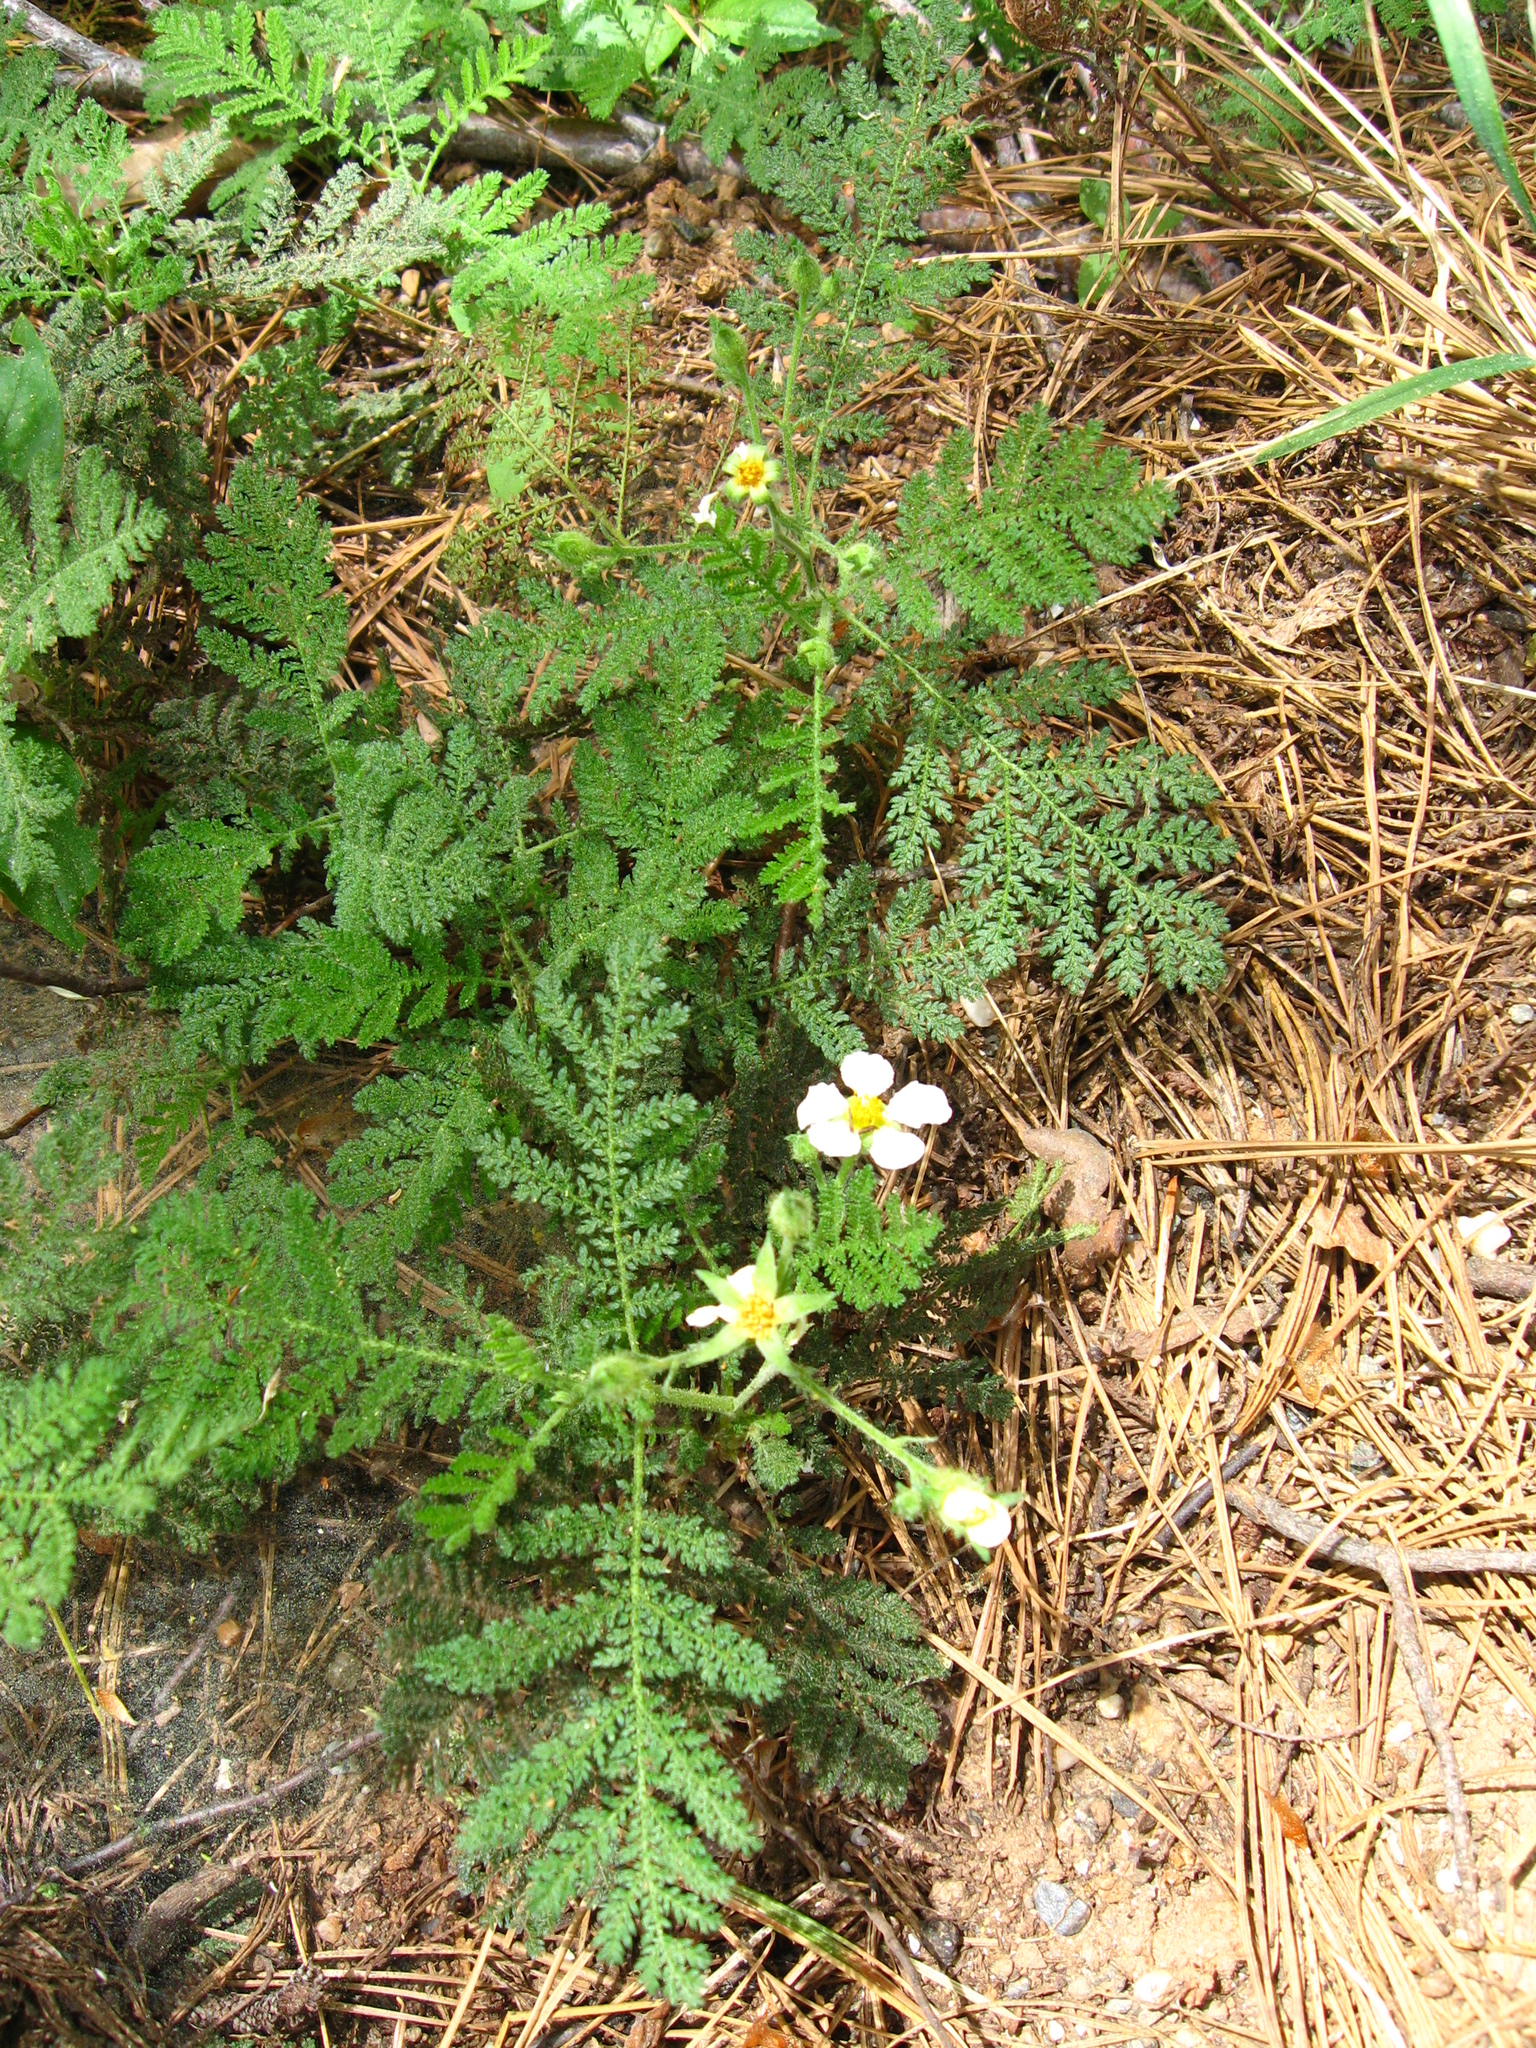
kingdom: Plantae
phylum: Tracheophyta
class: Magnoliopsida
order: Rosales
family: Rosaceae
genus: Chamaebatia
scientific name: Chamaebatia foliolosa
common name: Mountain misery
